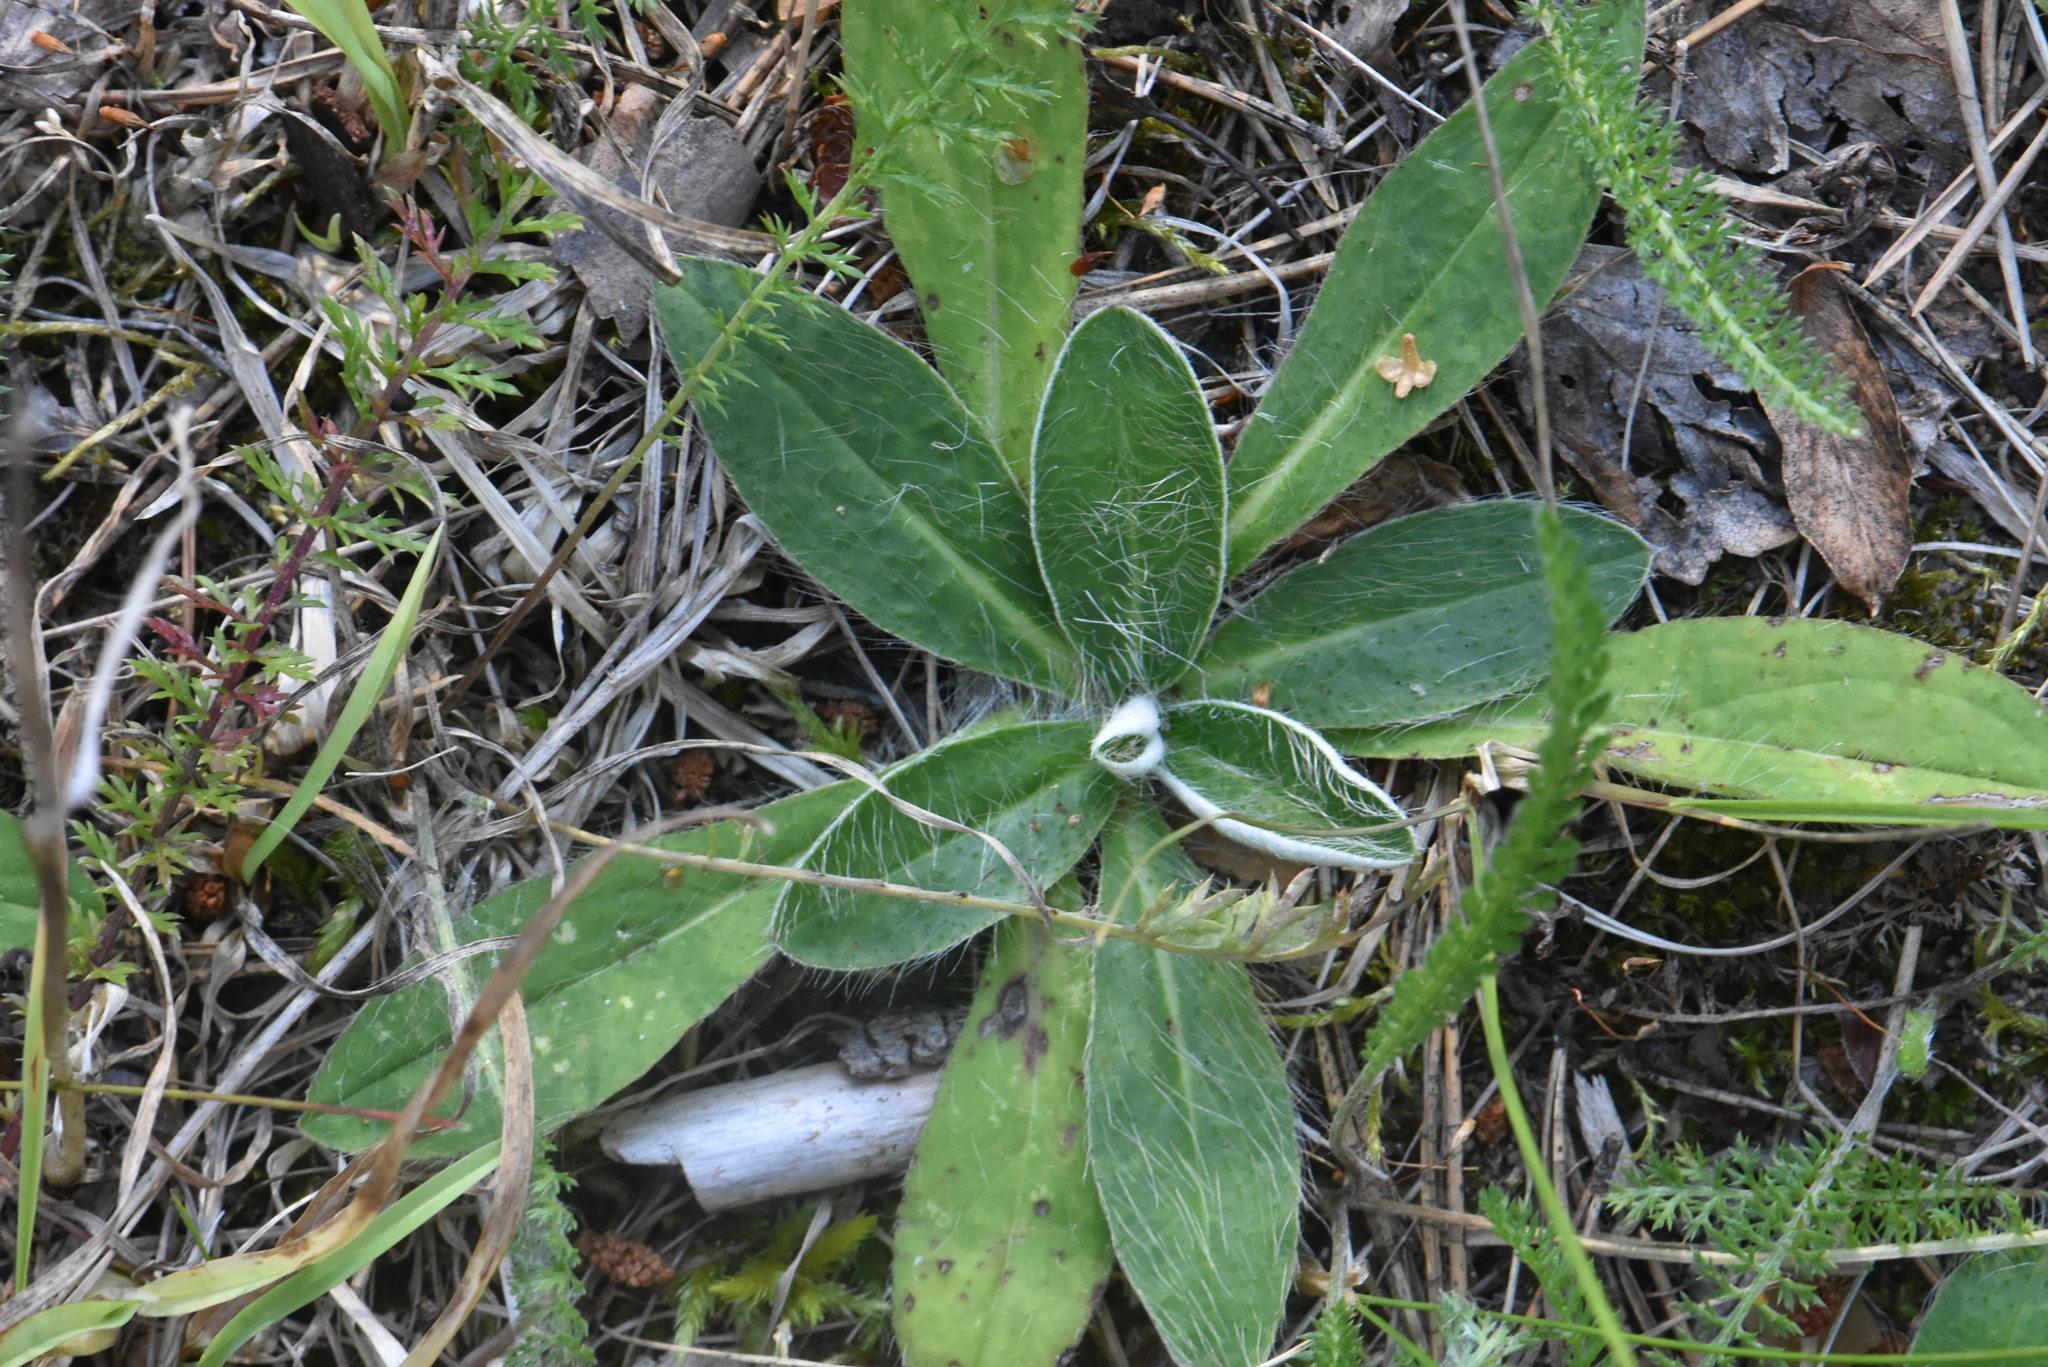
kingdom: Plantae
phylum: Tracheophyta
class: Magnoliopsida
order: Asterales
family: Asteraceae
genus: Pilosella
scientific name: Pilosella officinarum
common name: Mouse-ear hawkweed
